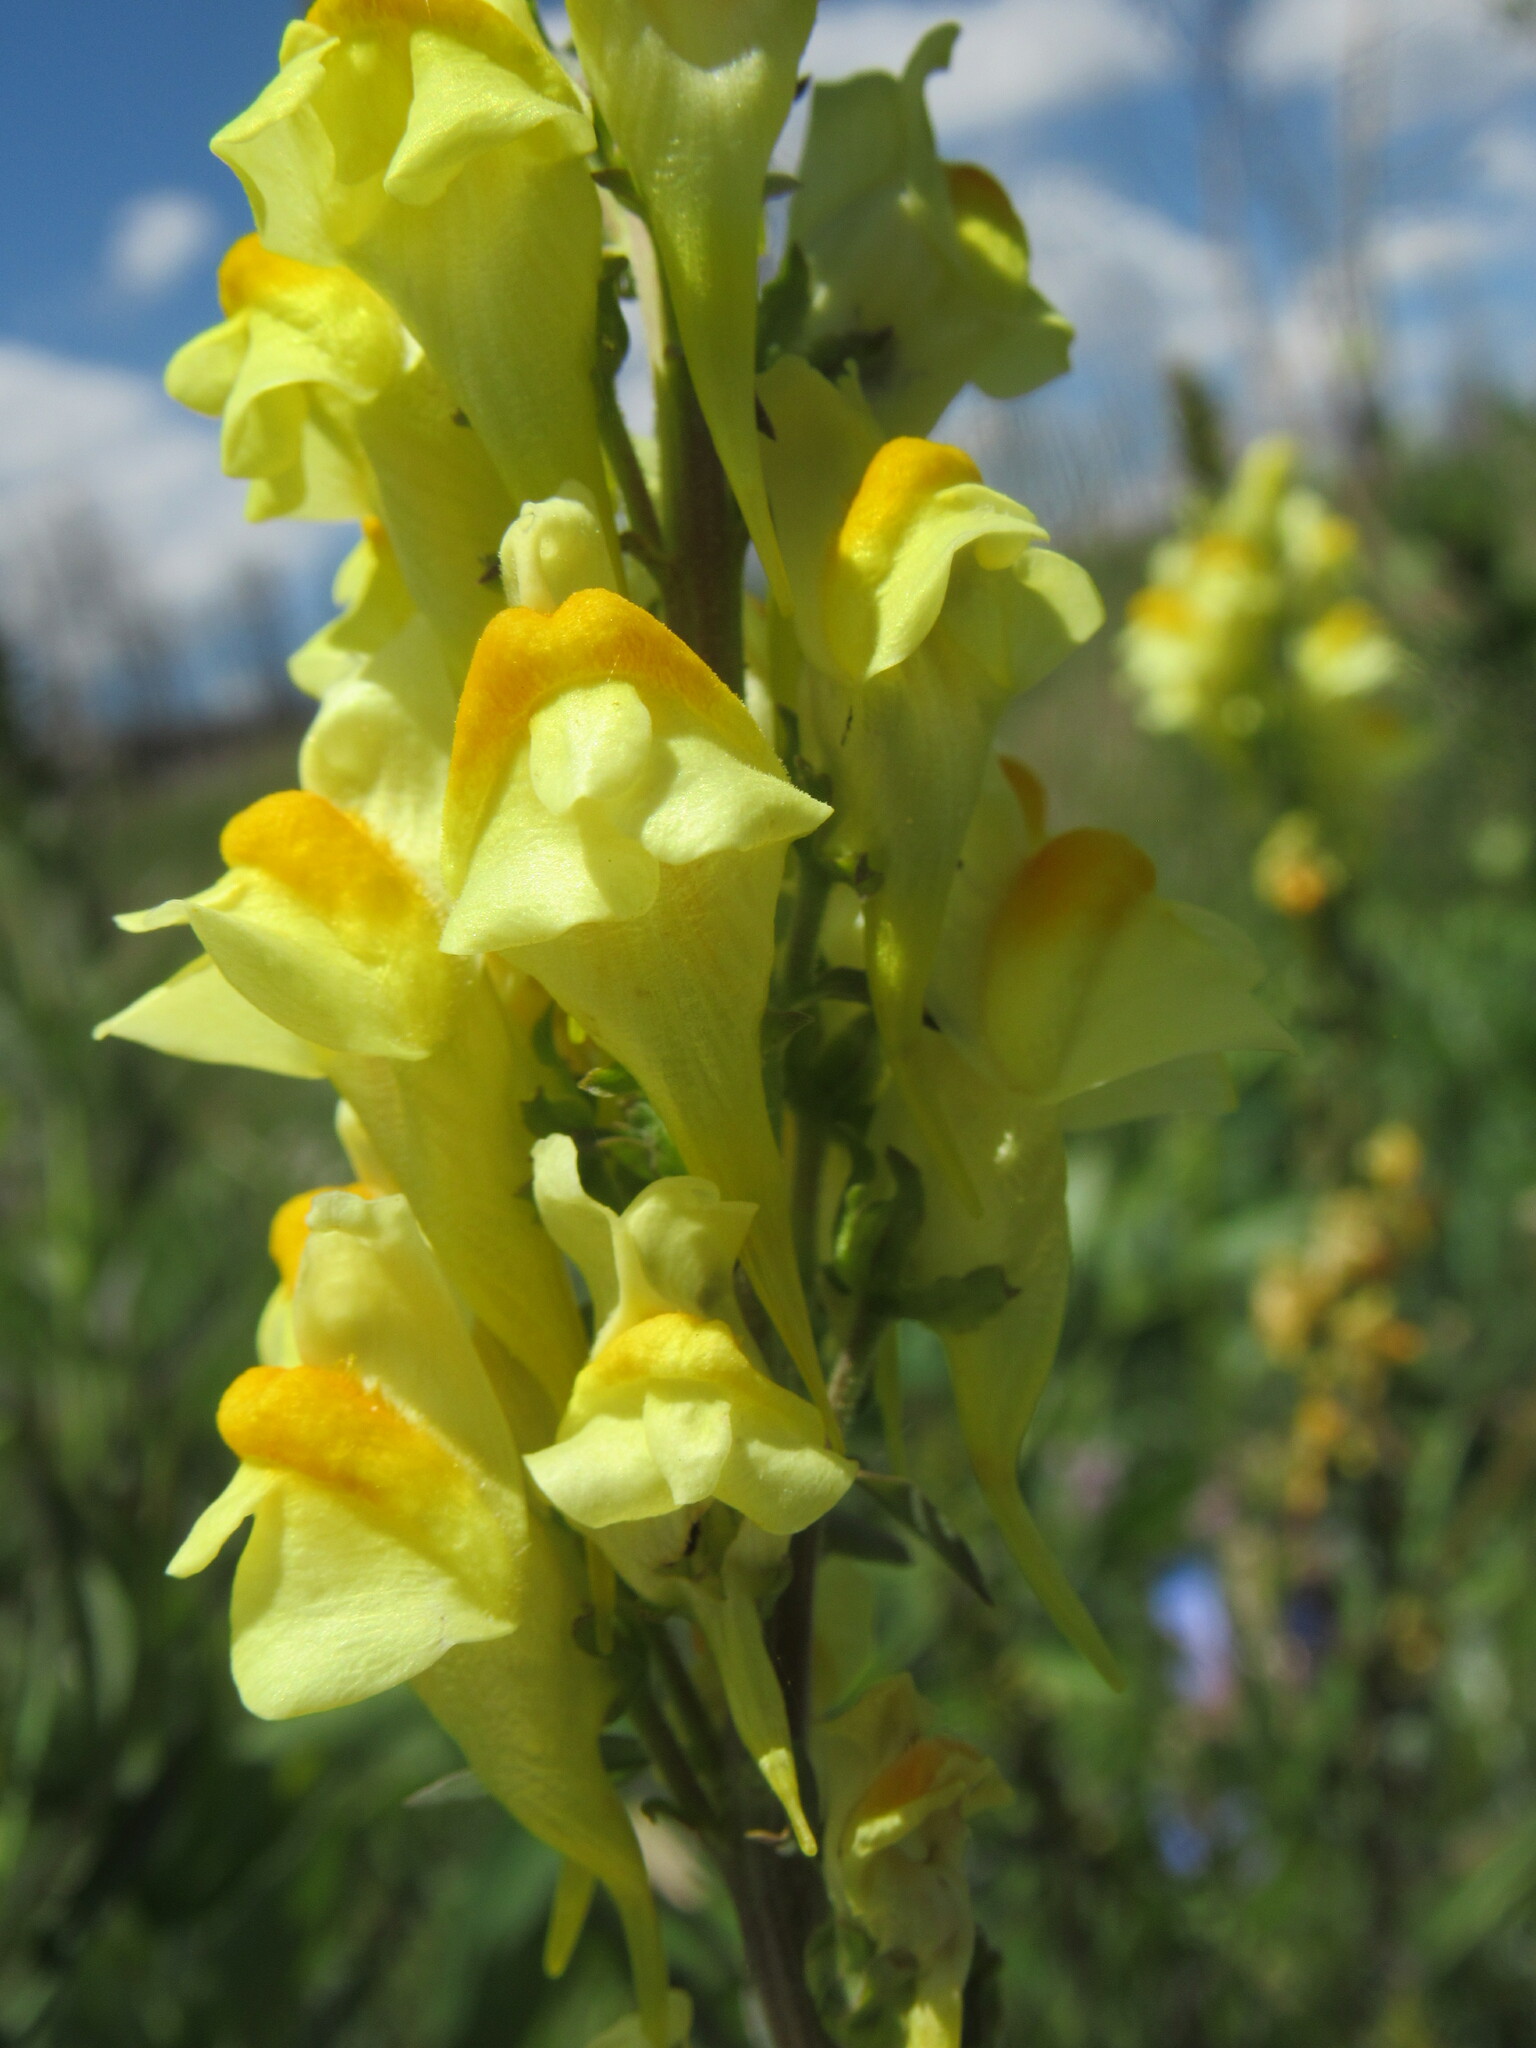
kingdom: Plantae
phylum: Tracheophyta
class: Magnoliopsida
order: Lamiales
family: Plantaginaceae
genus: Linaria
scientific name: Linaria vulgaris
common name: Butter and eggs
